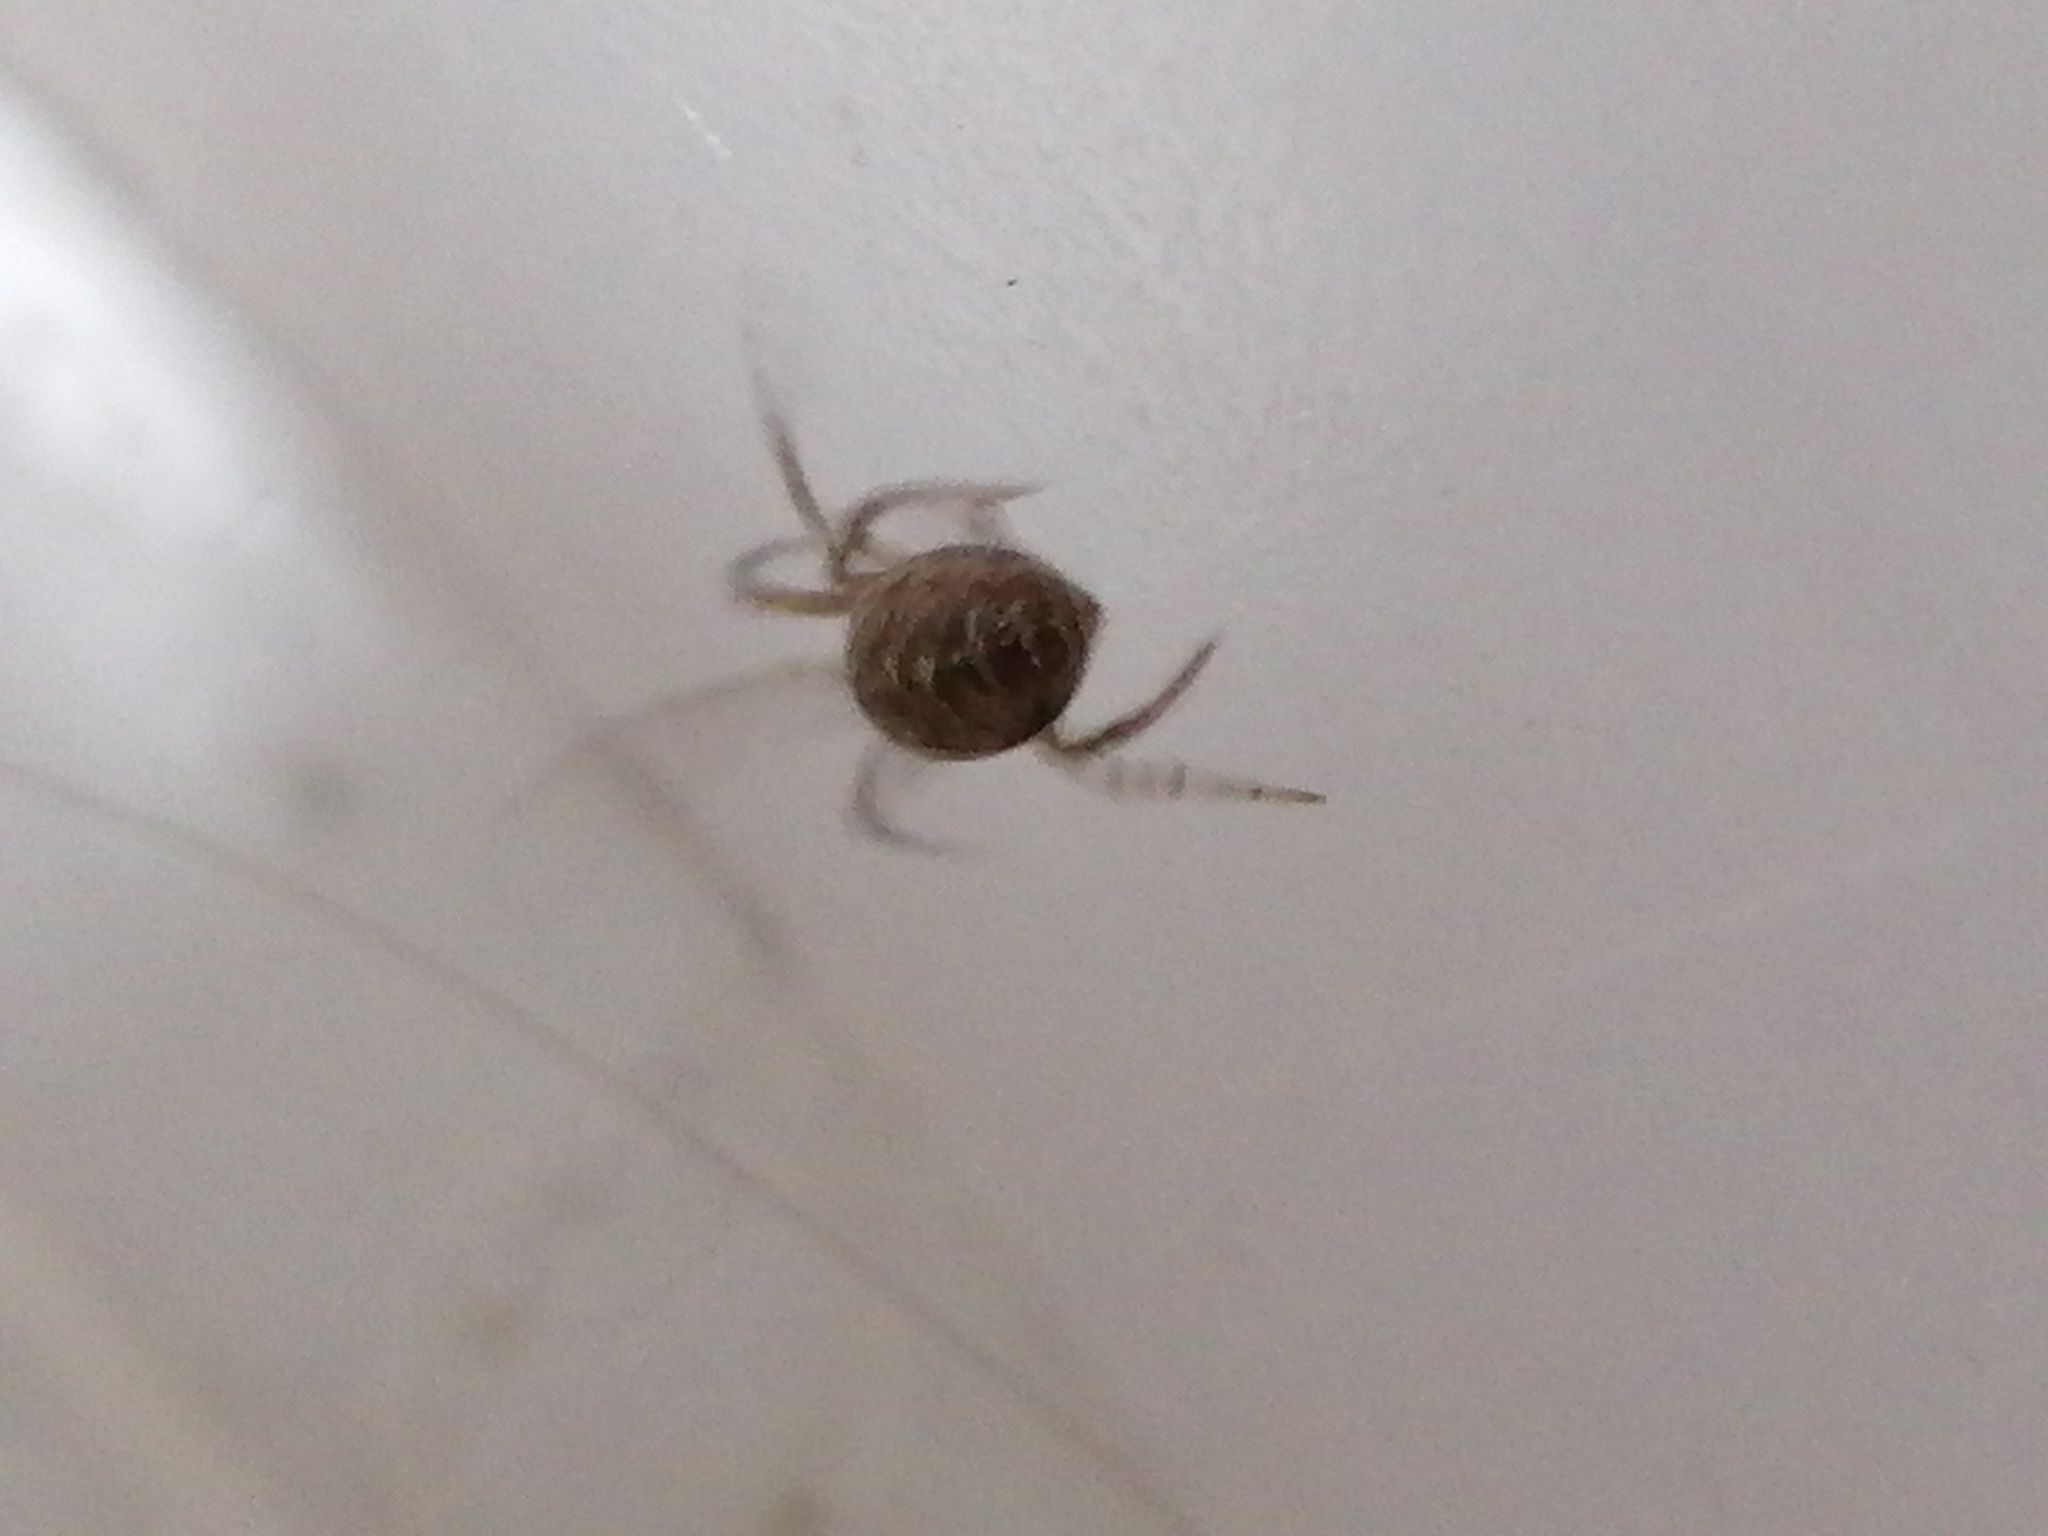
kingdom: Animalia
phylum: Arthropoda
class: Arachnida
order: Araneae
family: Theridiidae
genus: Steatoda
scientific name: Steatoda castanea
